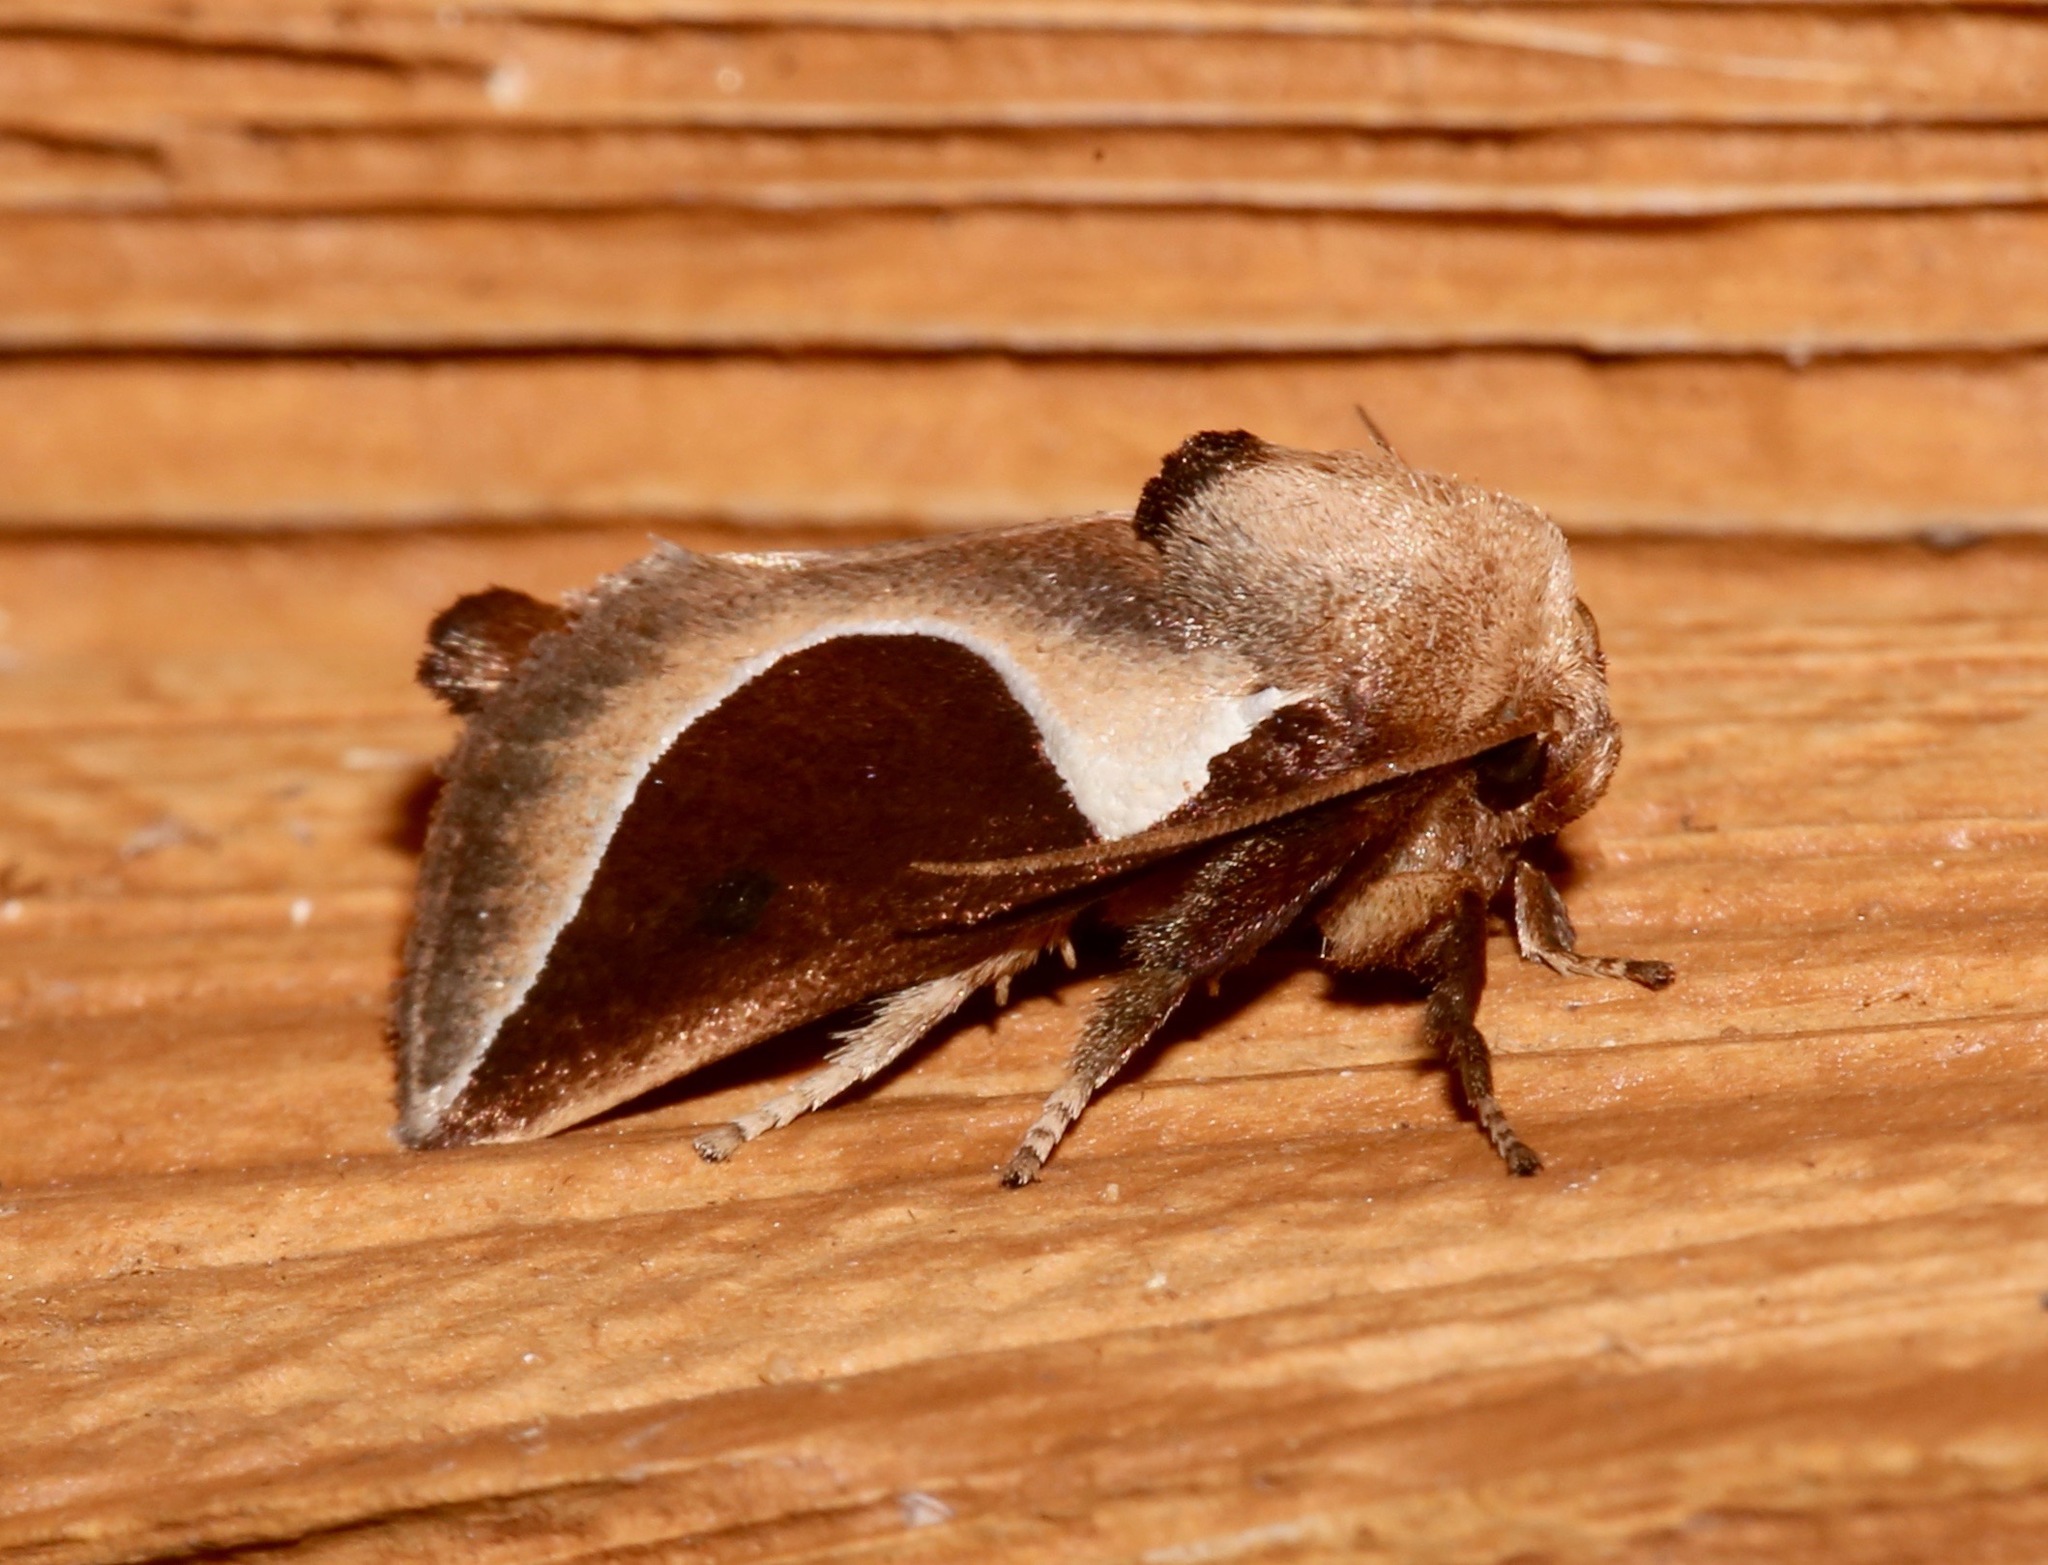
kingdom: Animalia
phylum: Arthropoda
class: Insecta
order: Lepidoptera
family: Limacodidae
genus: Prolimacodes
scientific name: Prolimacodes badia
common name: Skiff moth
